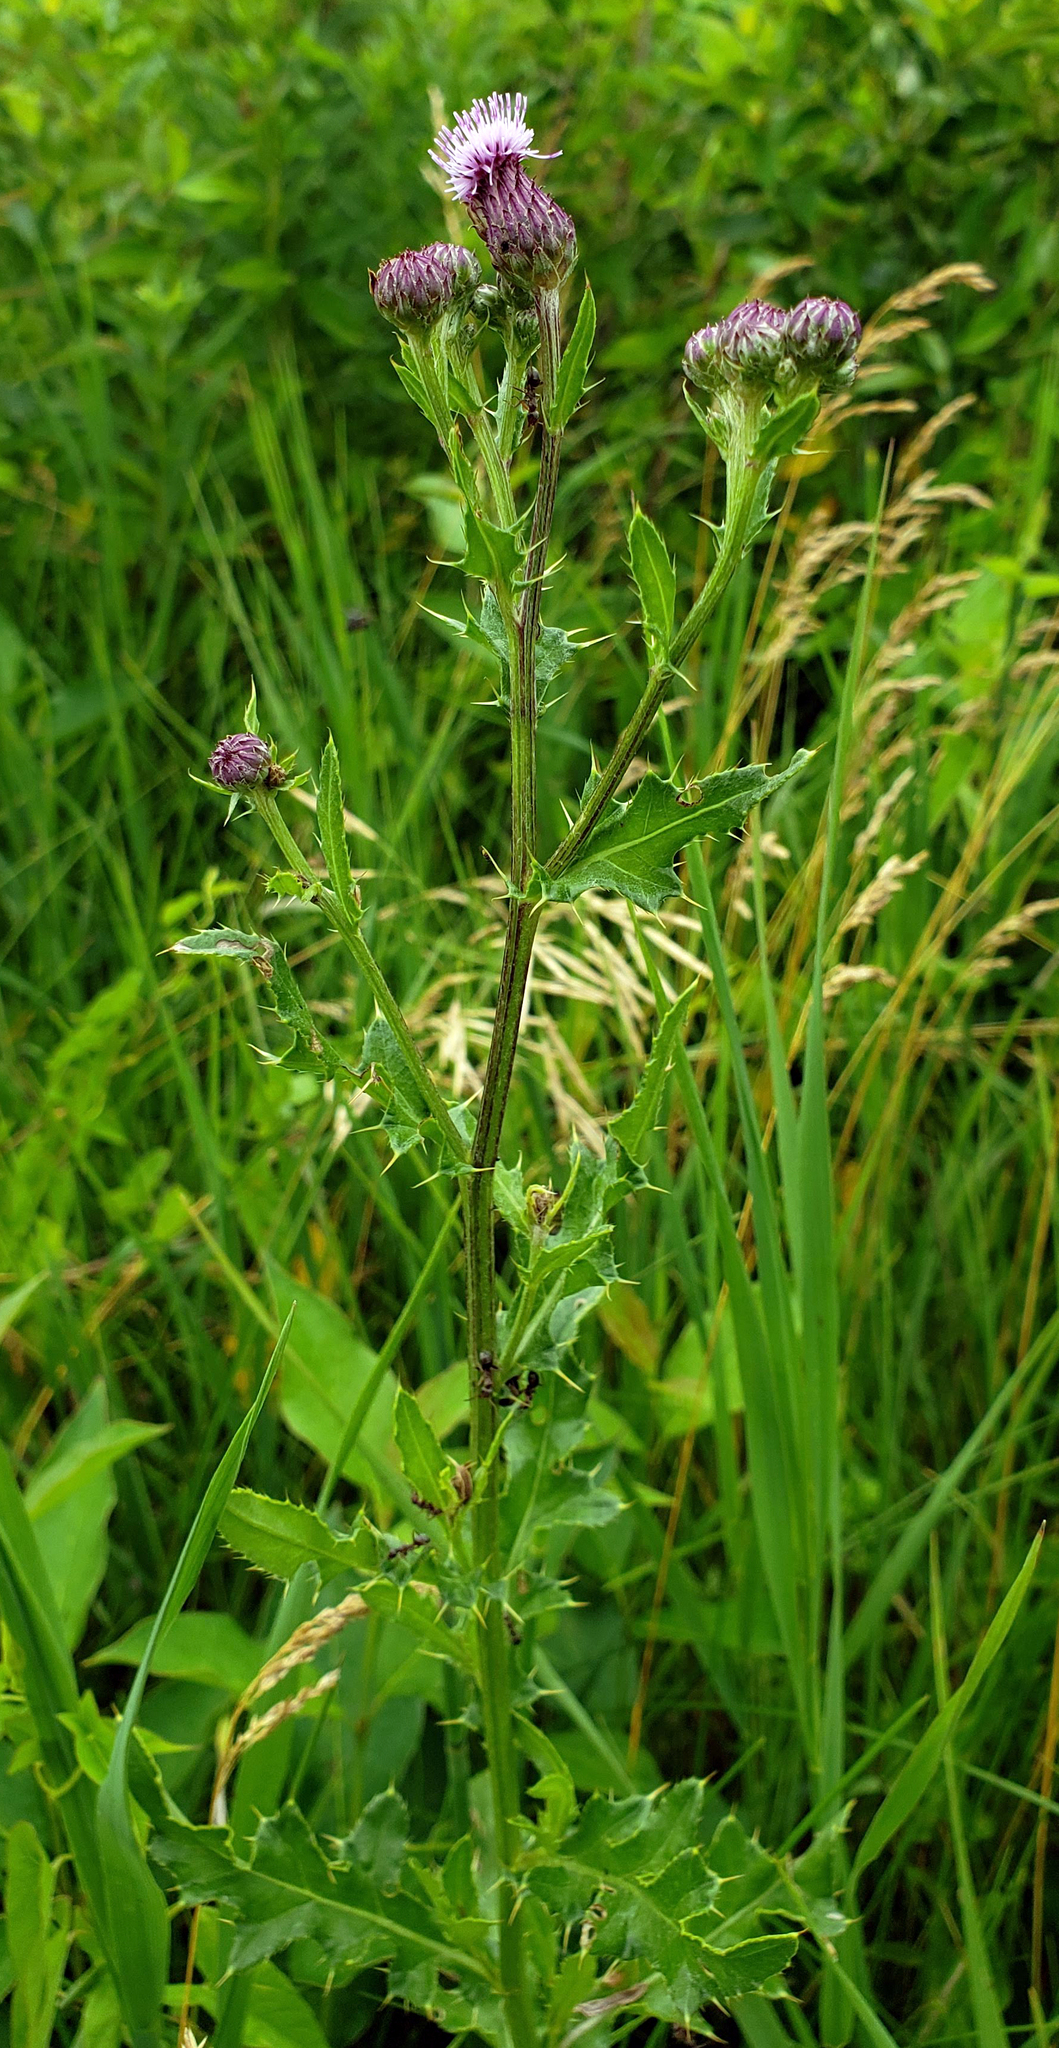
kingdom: Plantae
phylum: Tracheophyta
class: Magnoliopsida
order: Asterales
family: Asteraceae
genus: Cirsium
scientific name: Cirsium arvense
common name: Creeping thistle
